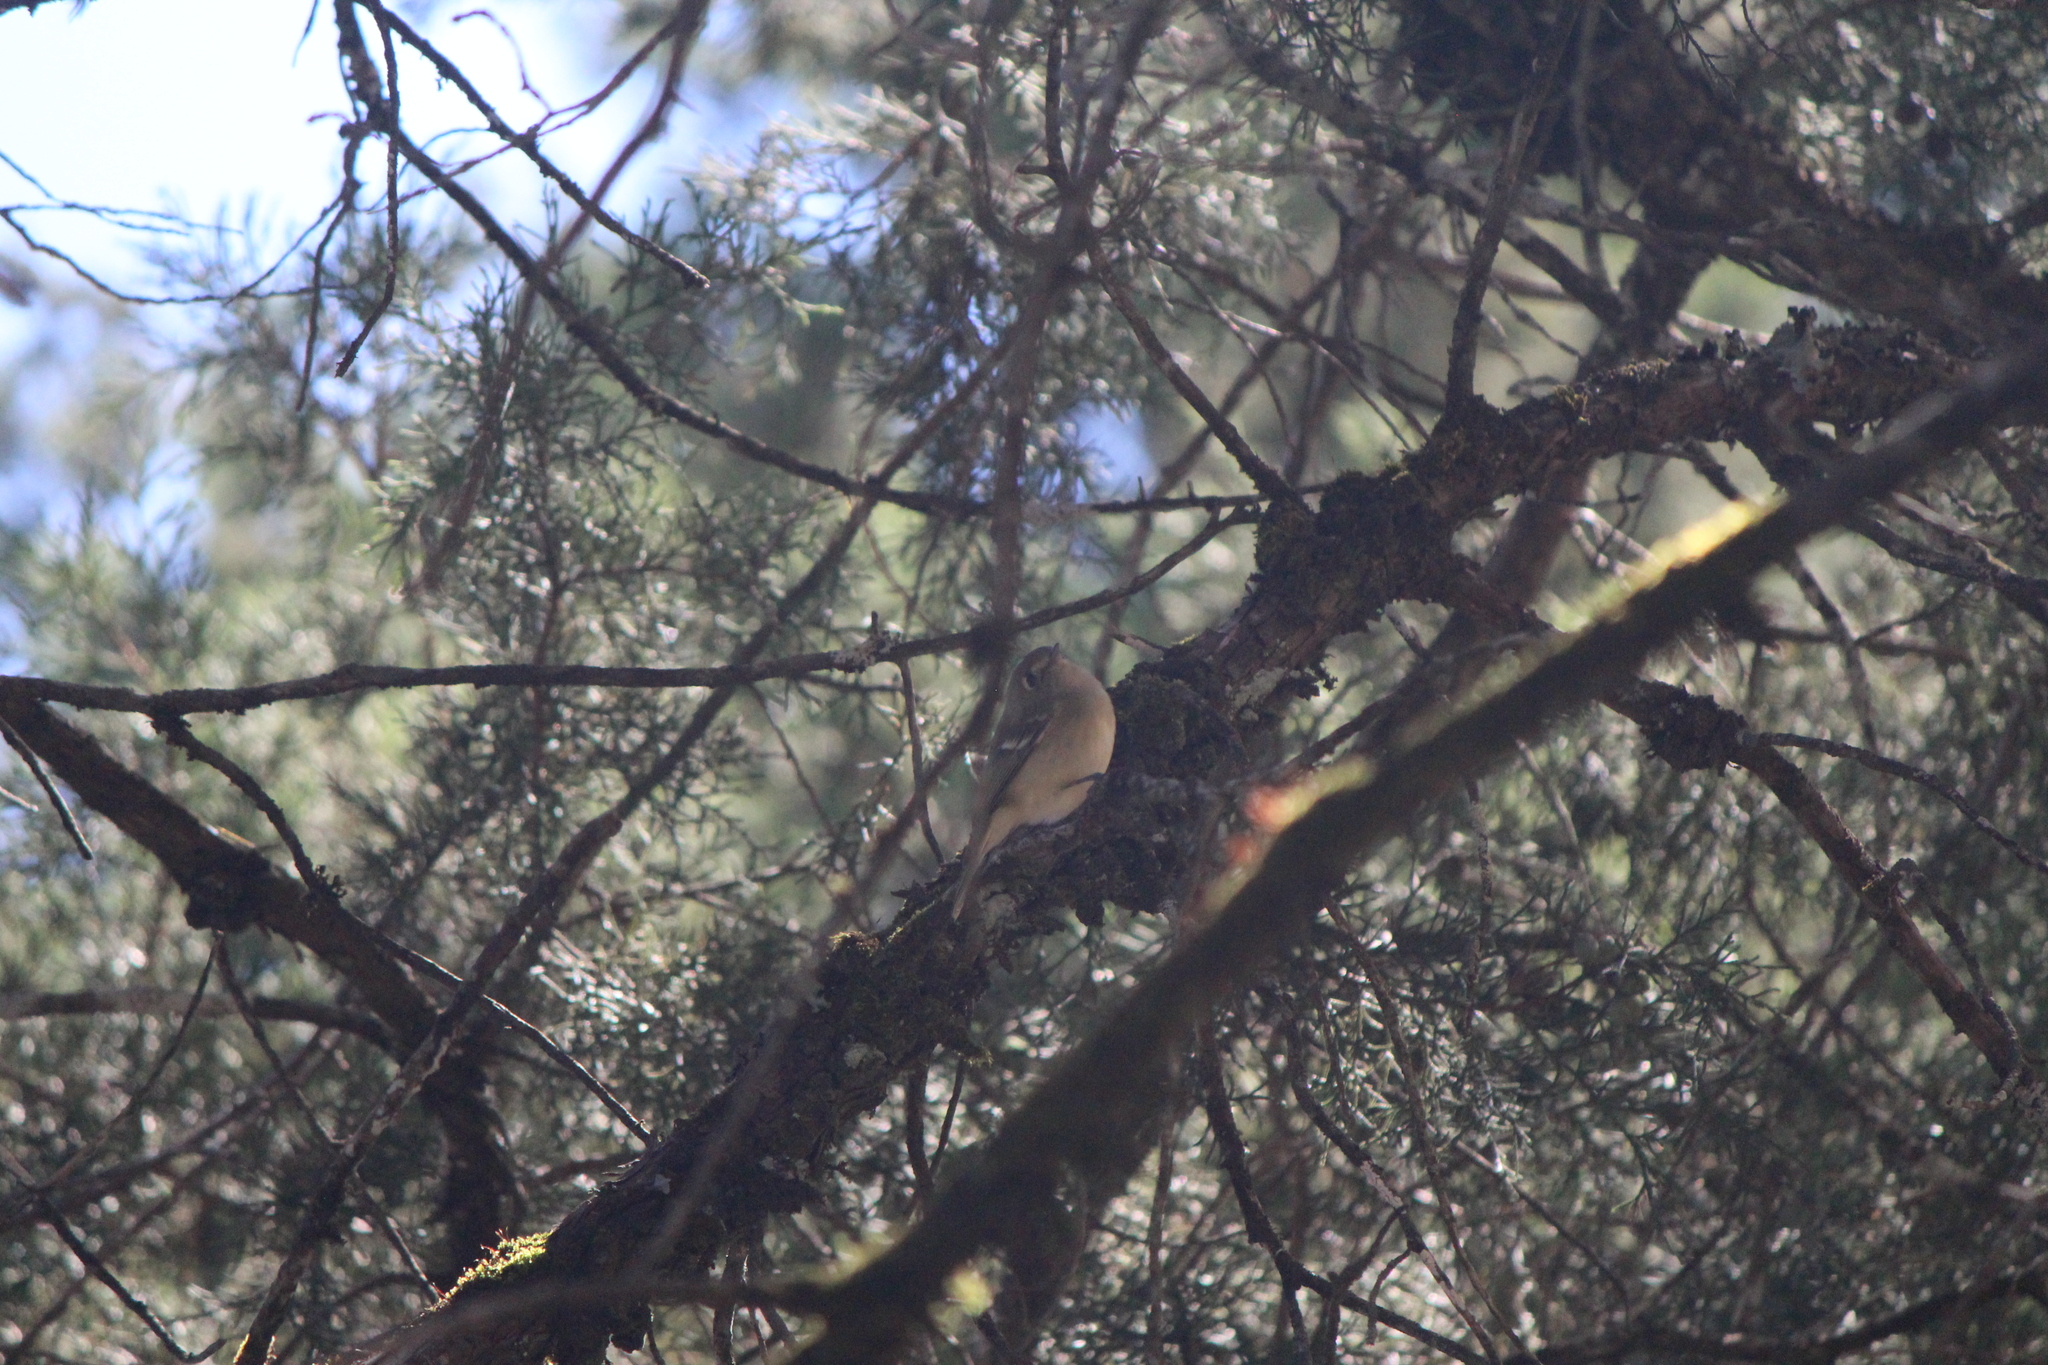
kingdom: Animalia
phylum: Chordata
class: Aves
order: Passeriformes
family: Vireonidae
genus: Vireo
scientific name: Vireo huttoni
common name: Hutton's vireo
